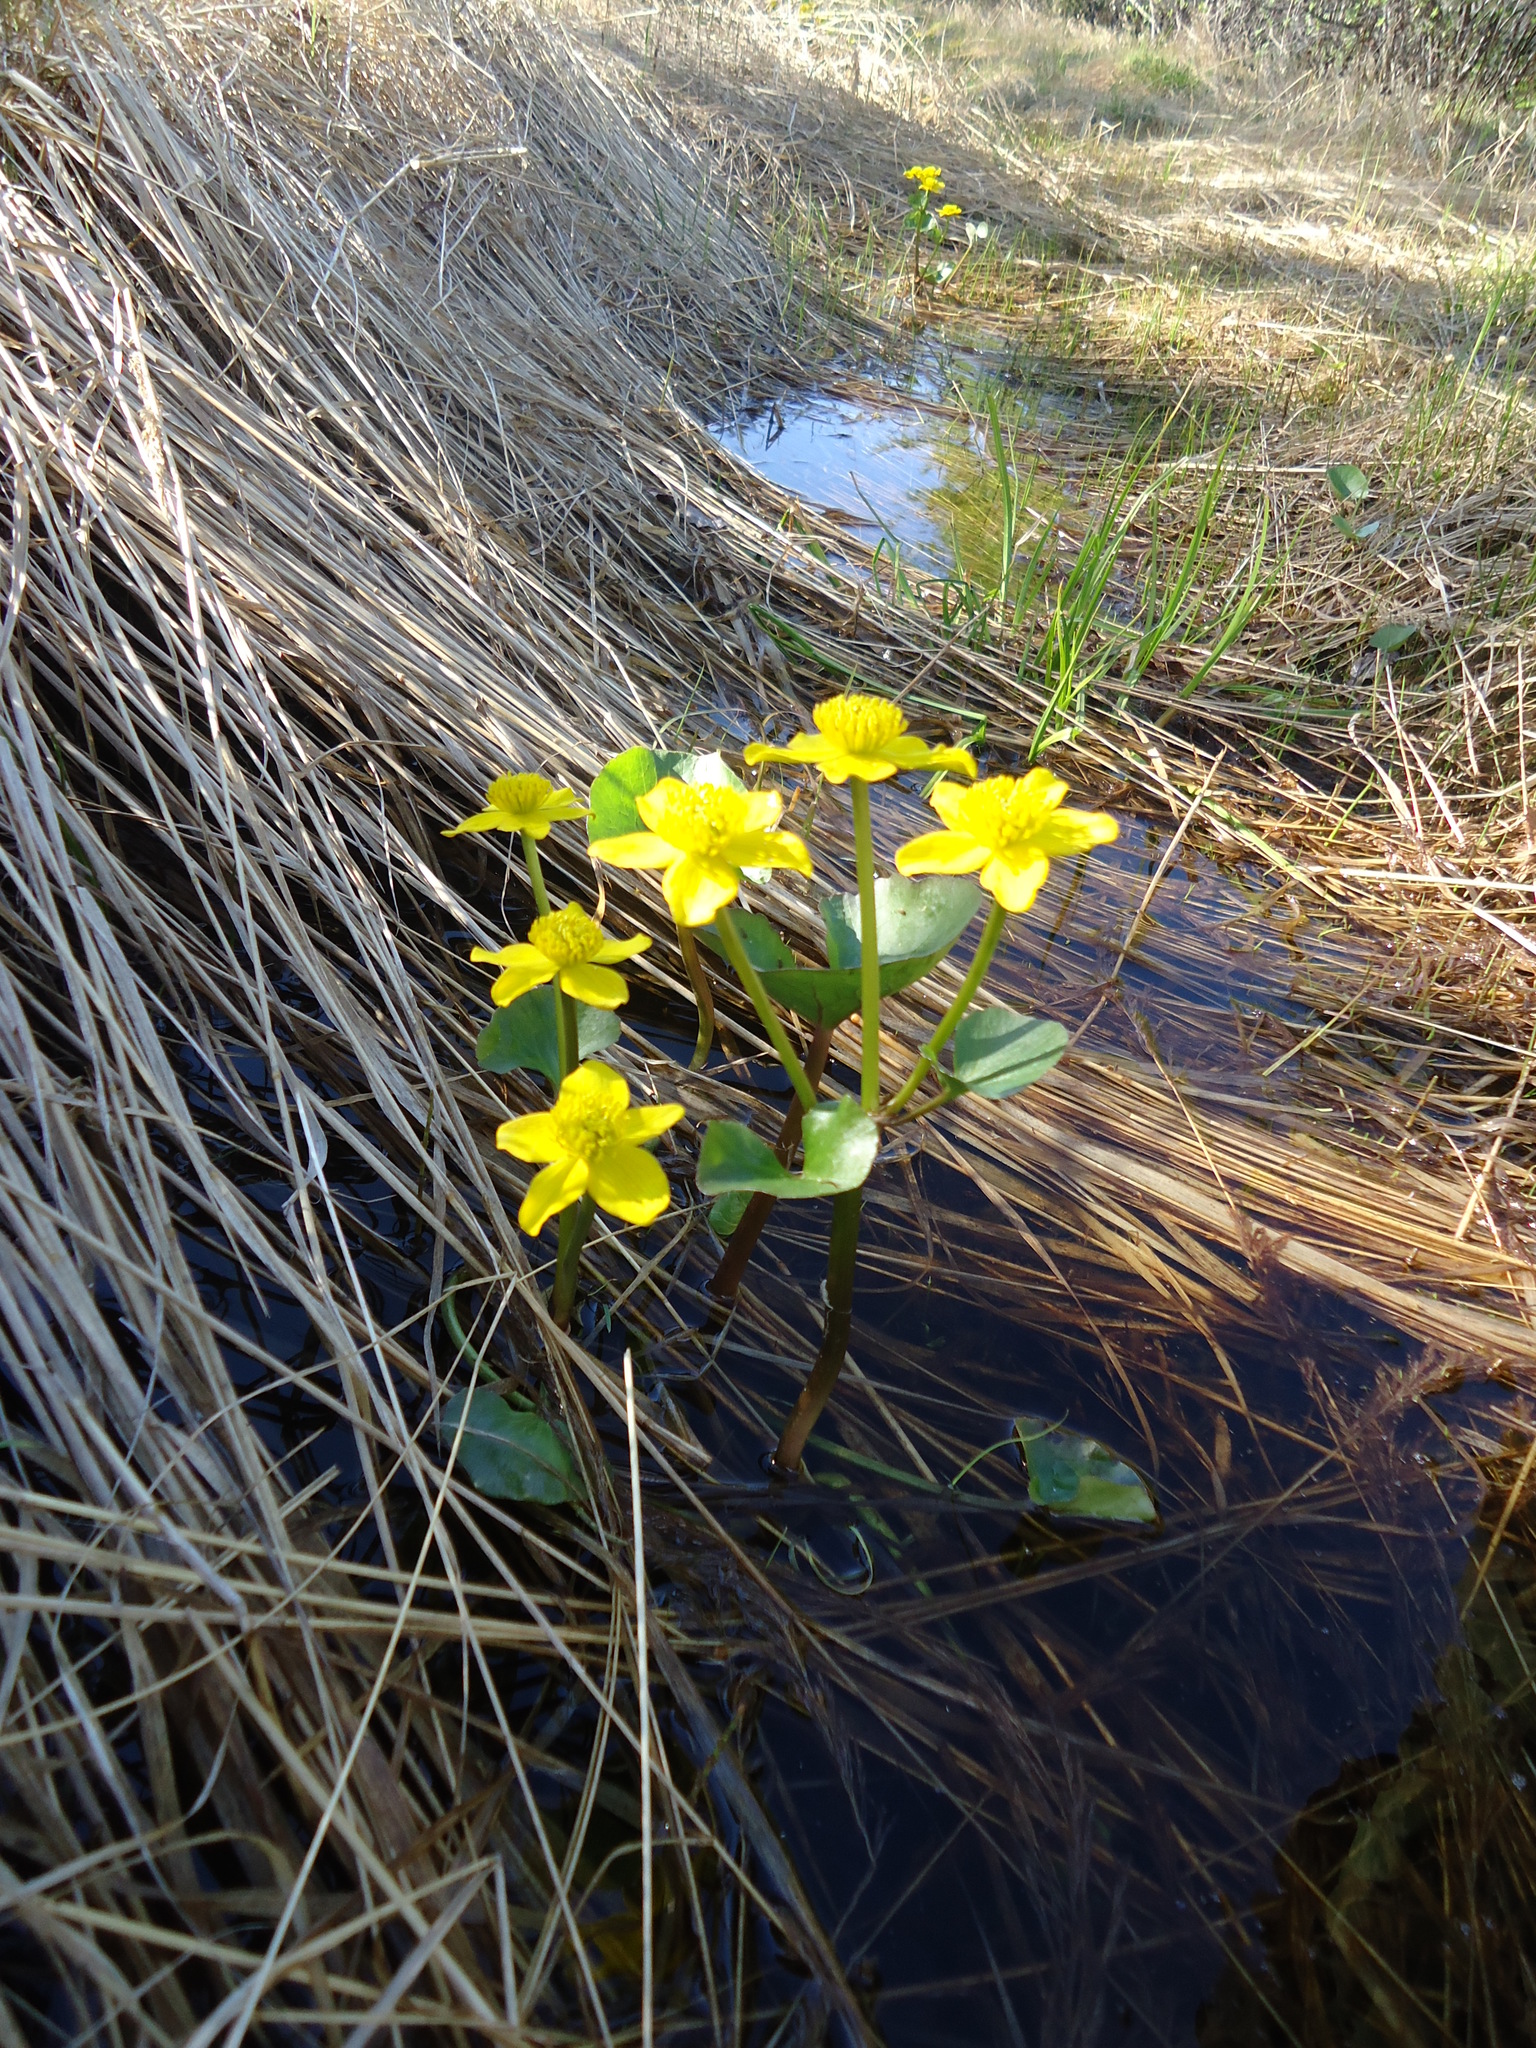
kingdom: Plantae
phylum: Tracheophyta
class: Magnoliopsida
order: Ranunculales
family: Ranunculaceae
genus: Caltha
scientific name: Caltha palustris
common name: Marsh marigold
